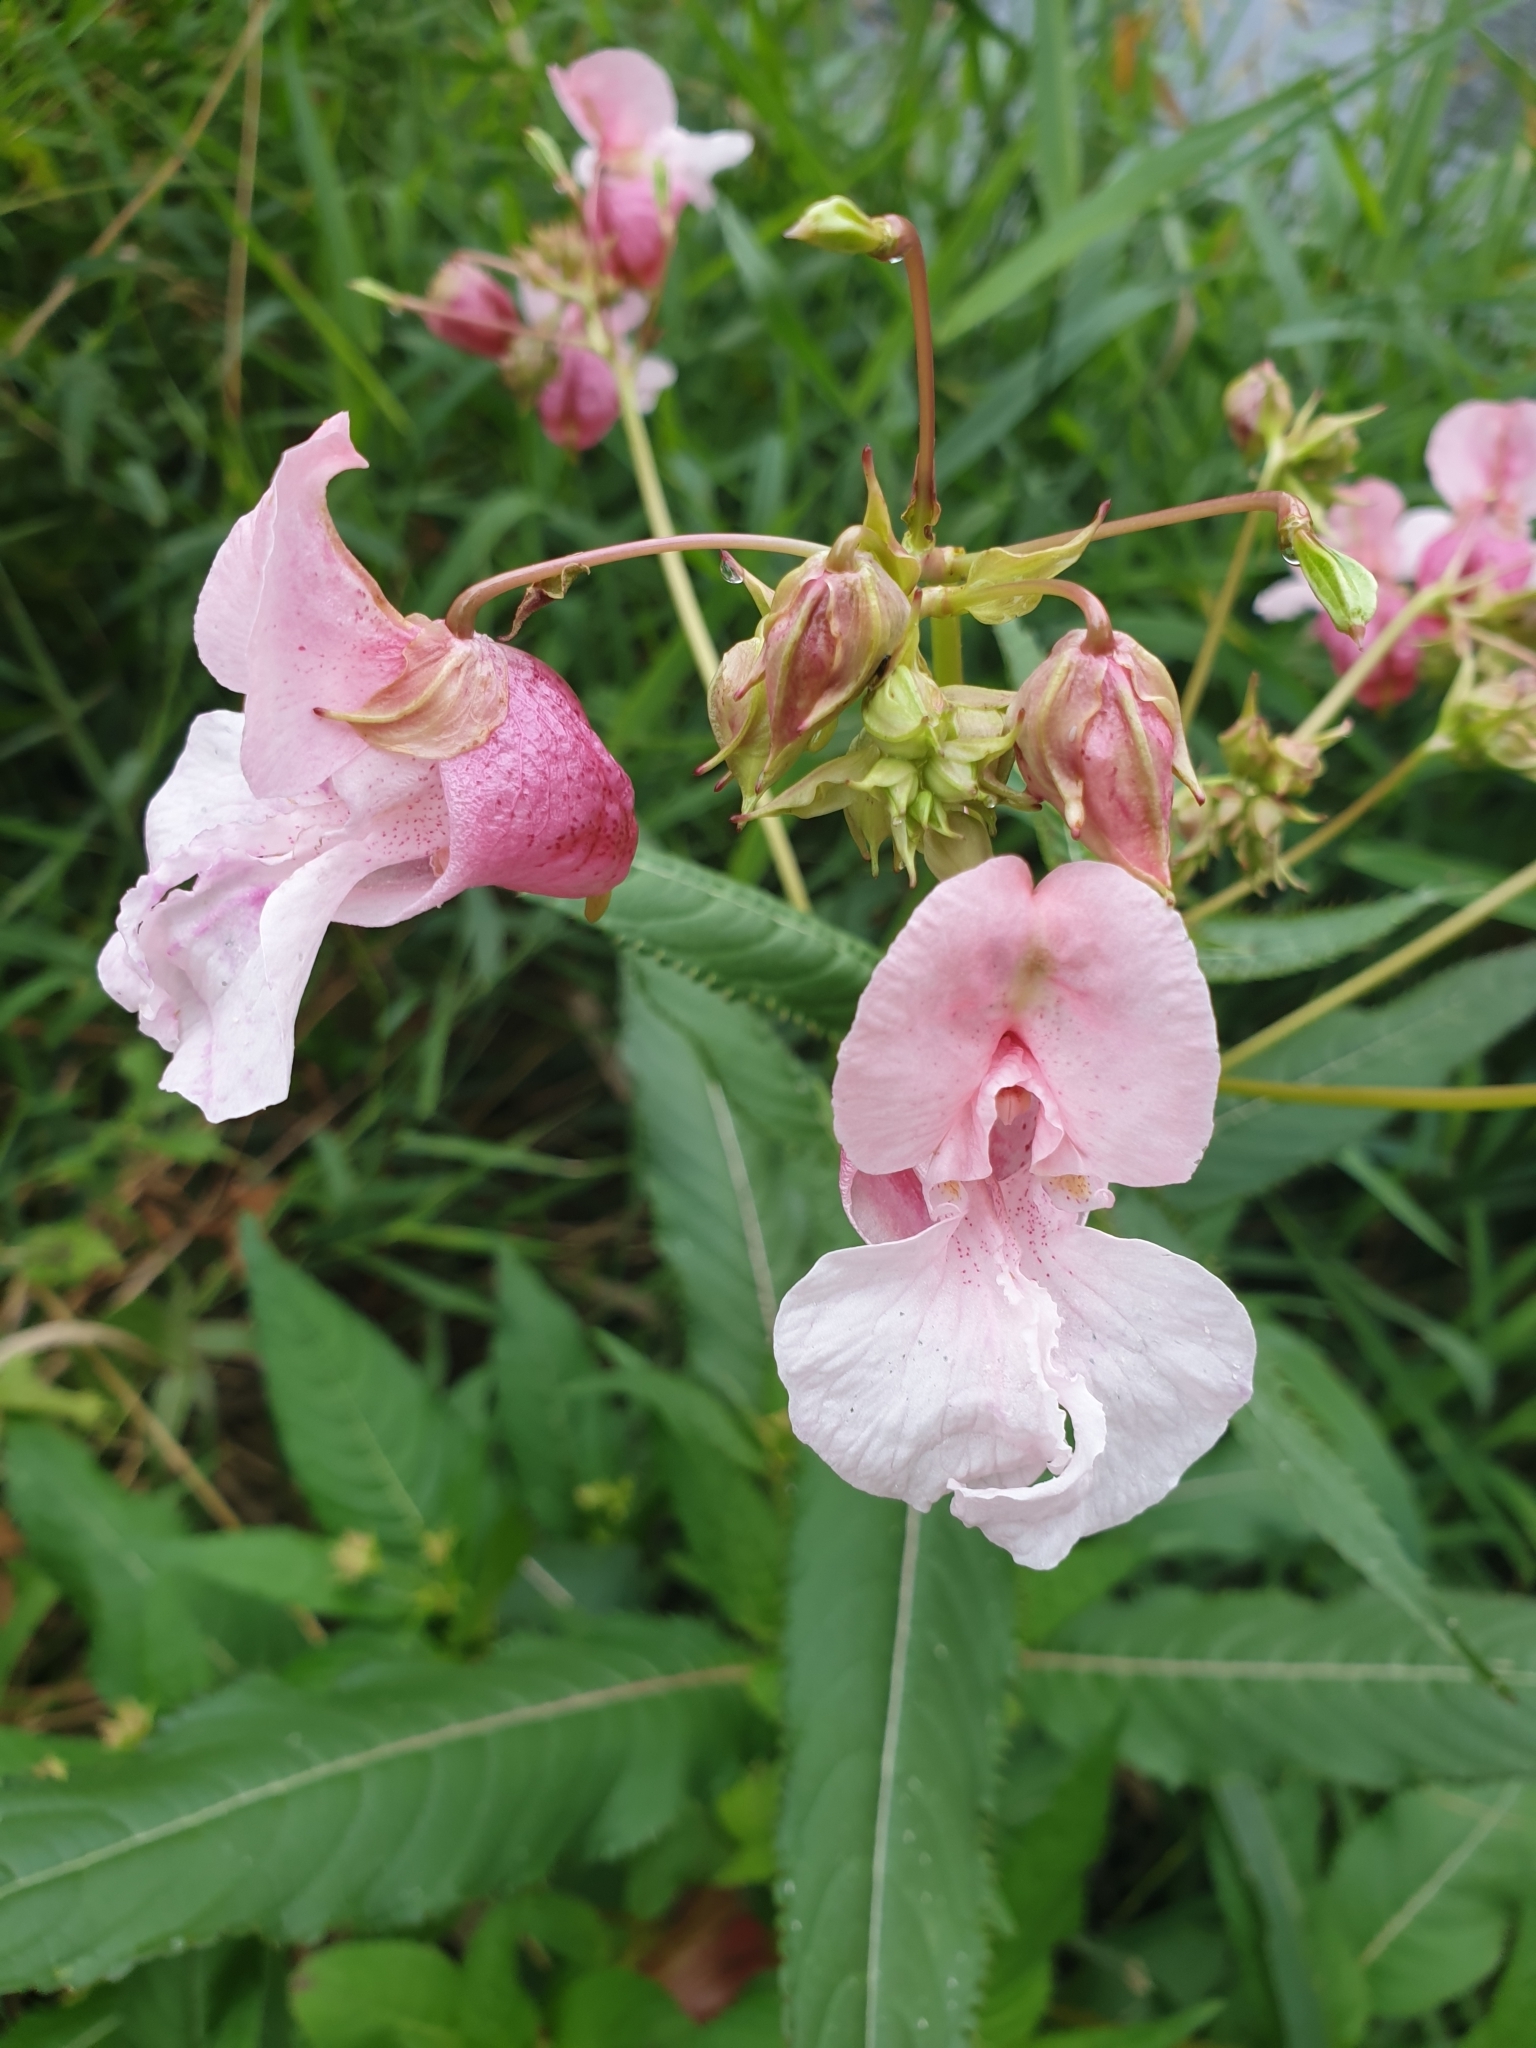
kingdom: Plantae
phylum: Tracheophyta
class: Magnoliopsida
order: Ericales
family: Balsaminaceae
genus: Impatiens
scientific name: Impatiens glandulifera
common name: Himalayan balsam
